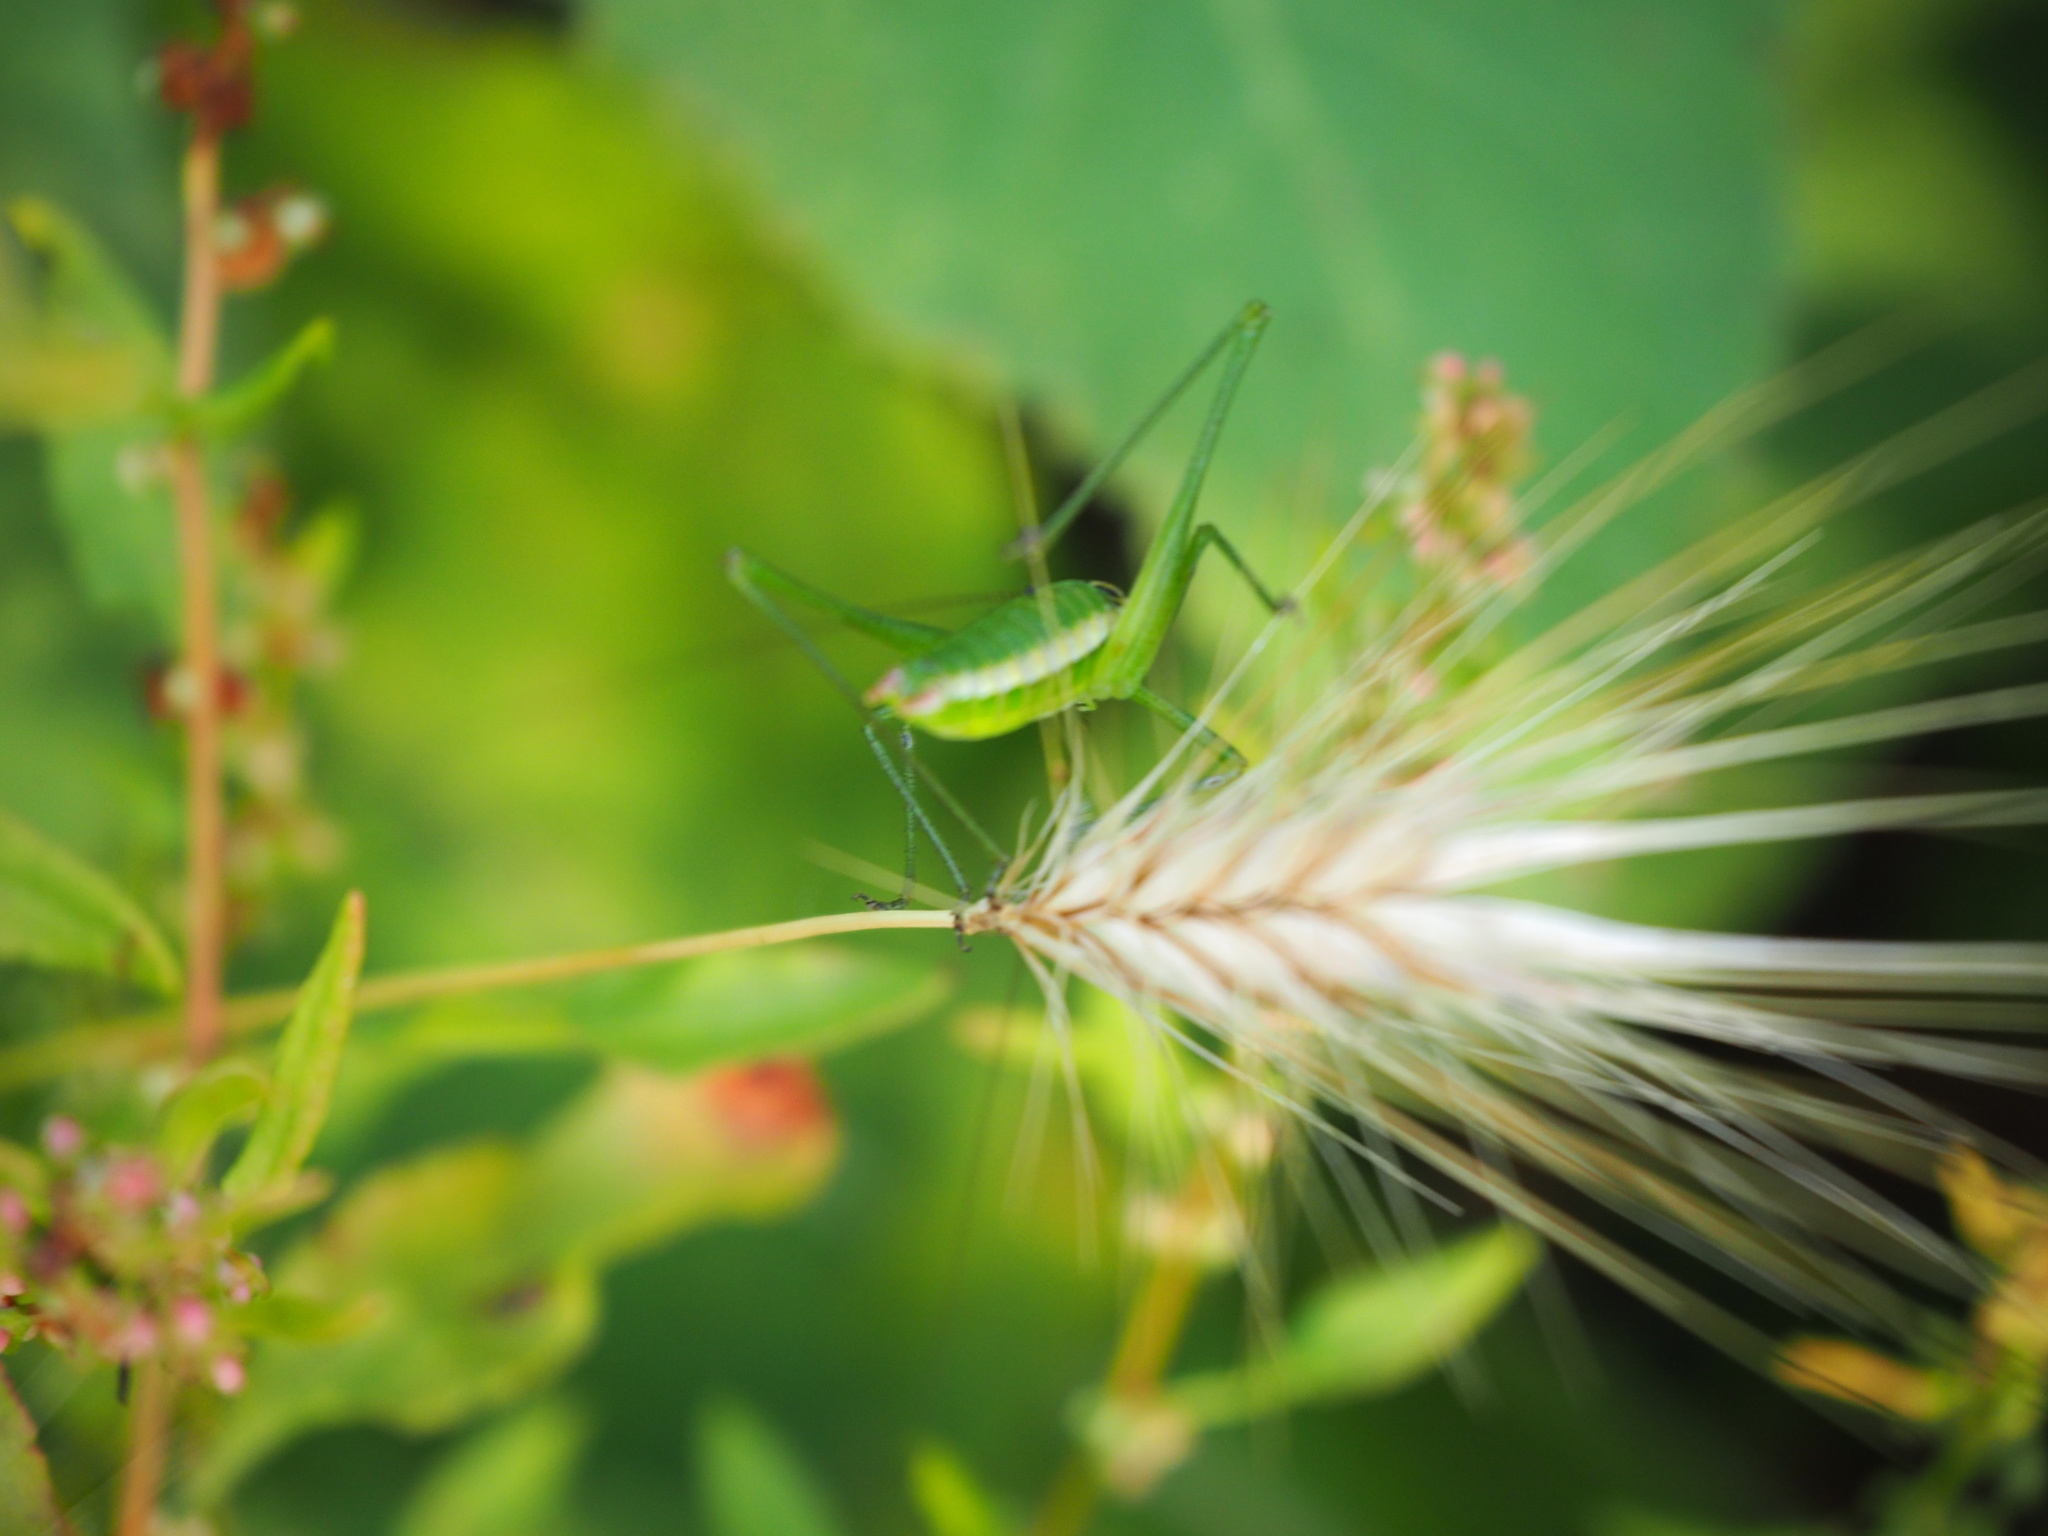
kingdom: Animalia
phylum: Arthropoda
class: Insecta
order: Orthoptera
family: Tettigoniidae
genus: Leptophyes
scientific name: Leptophyes boscii
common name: Balkan speckled bush-cricket
